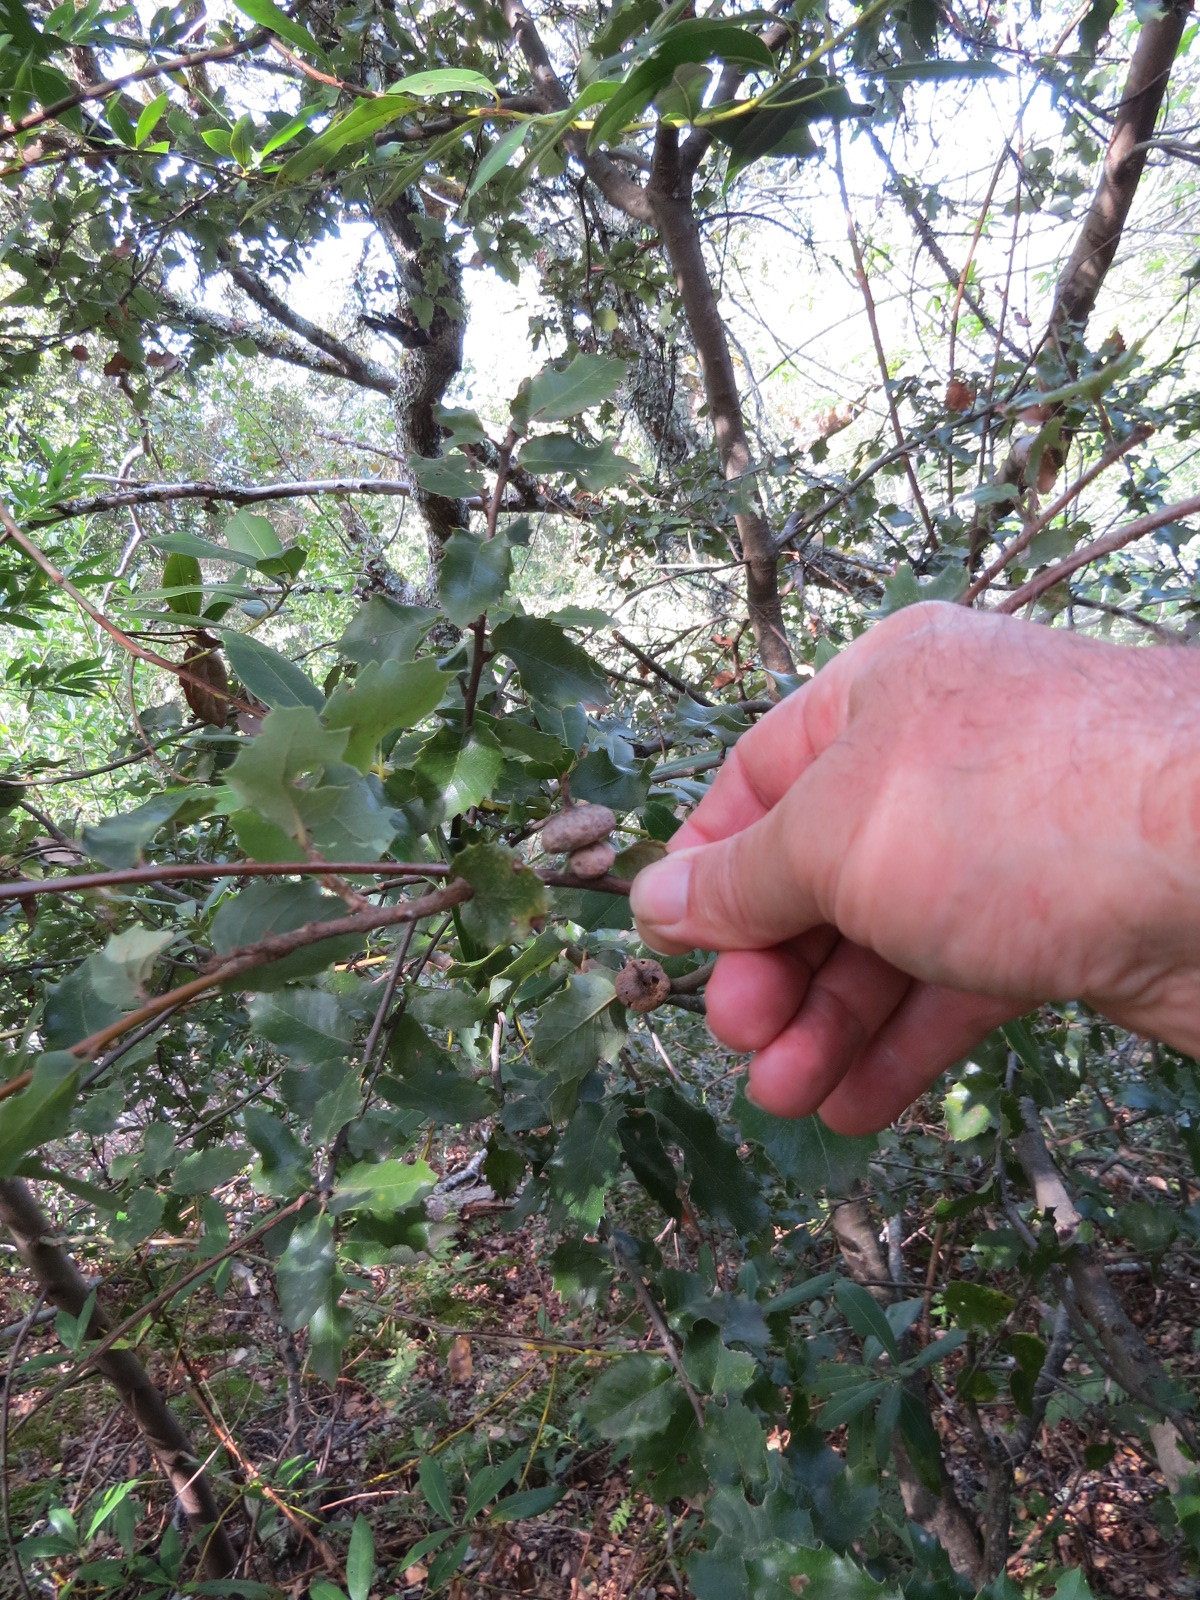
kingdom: Animalia
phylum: Arthropoda
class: Insecta
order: Hymenoptera
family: Cynipidae
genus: Heteroecus
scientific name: Heteroecus
